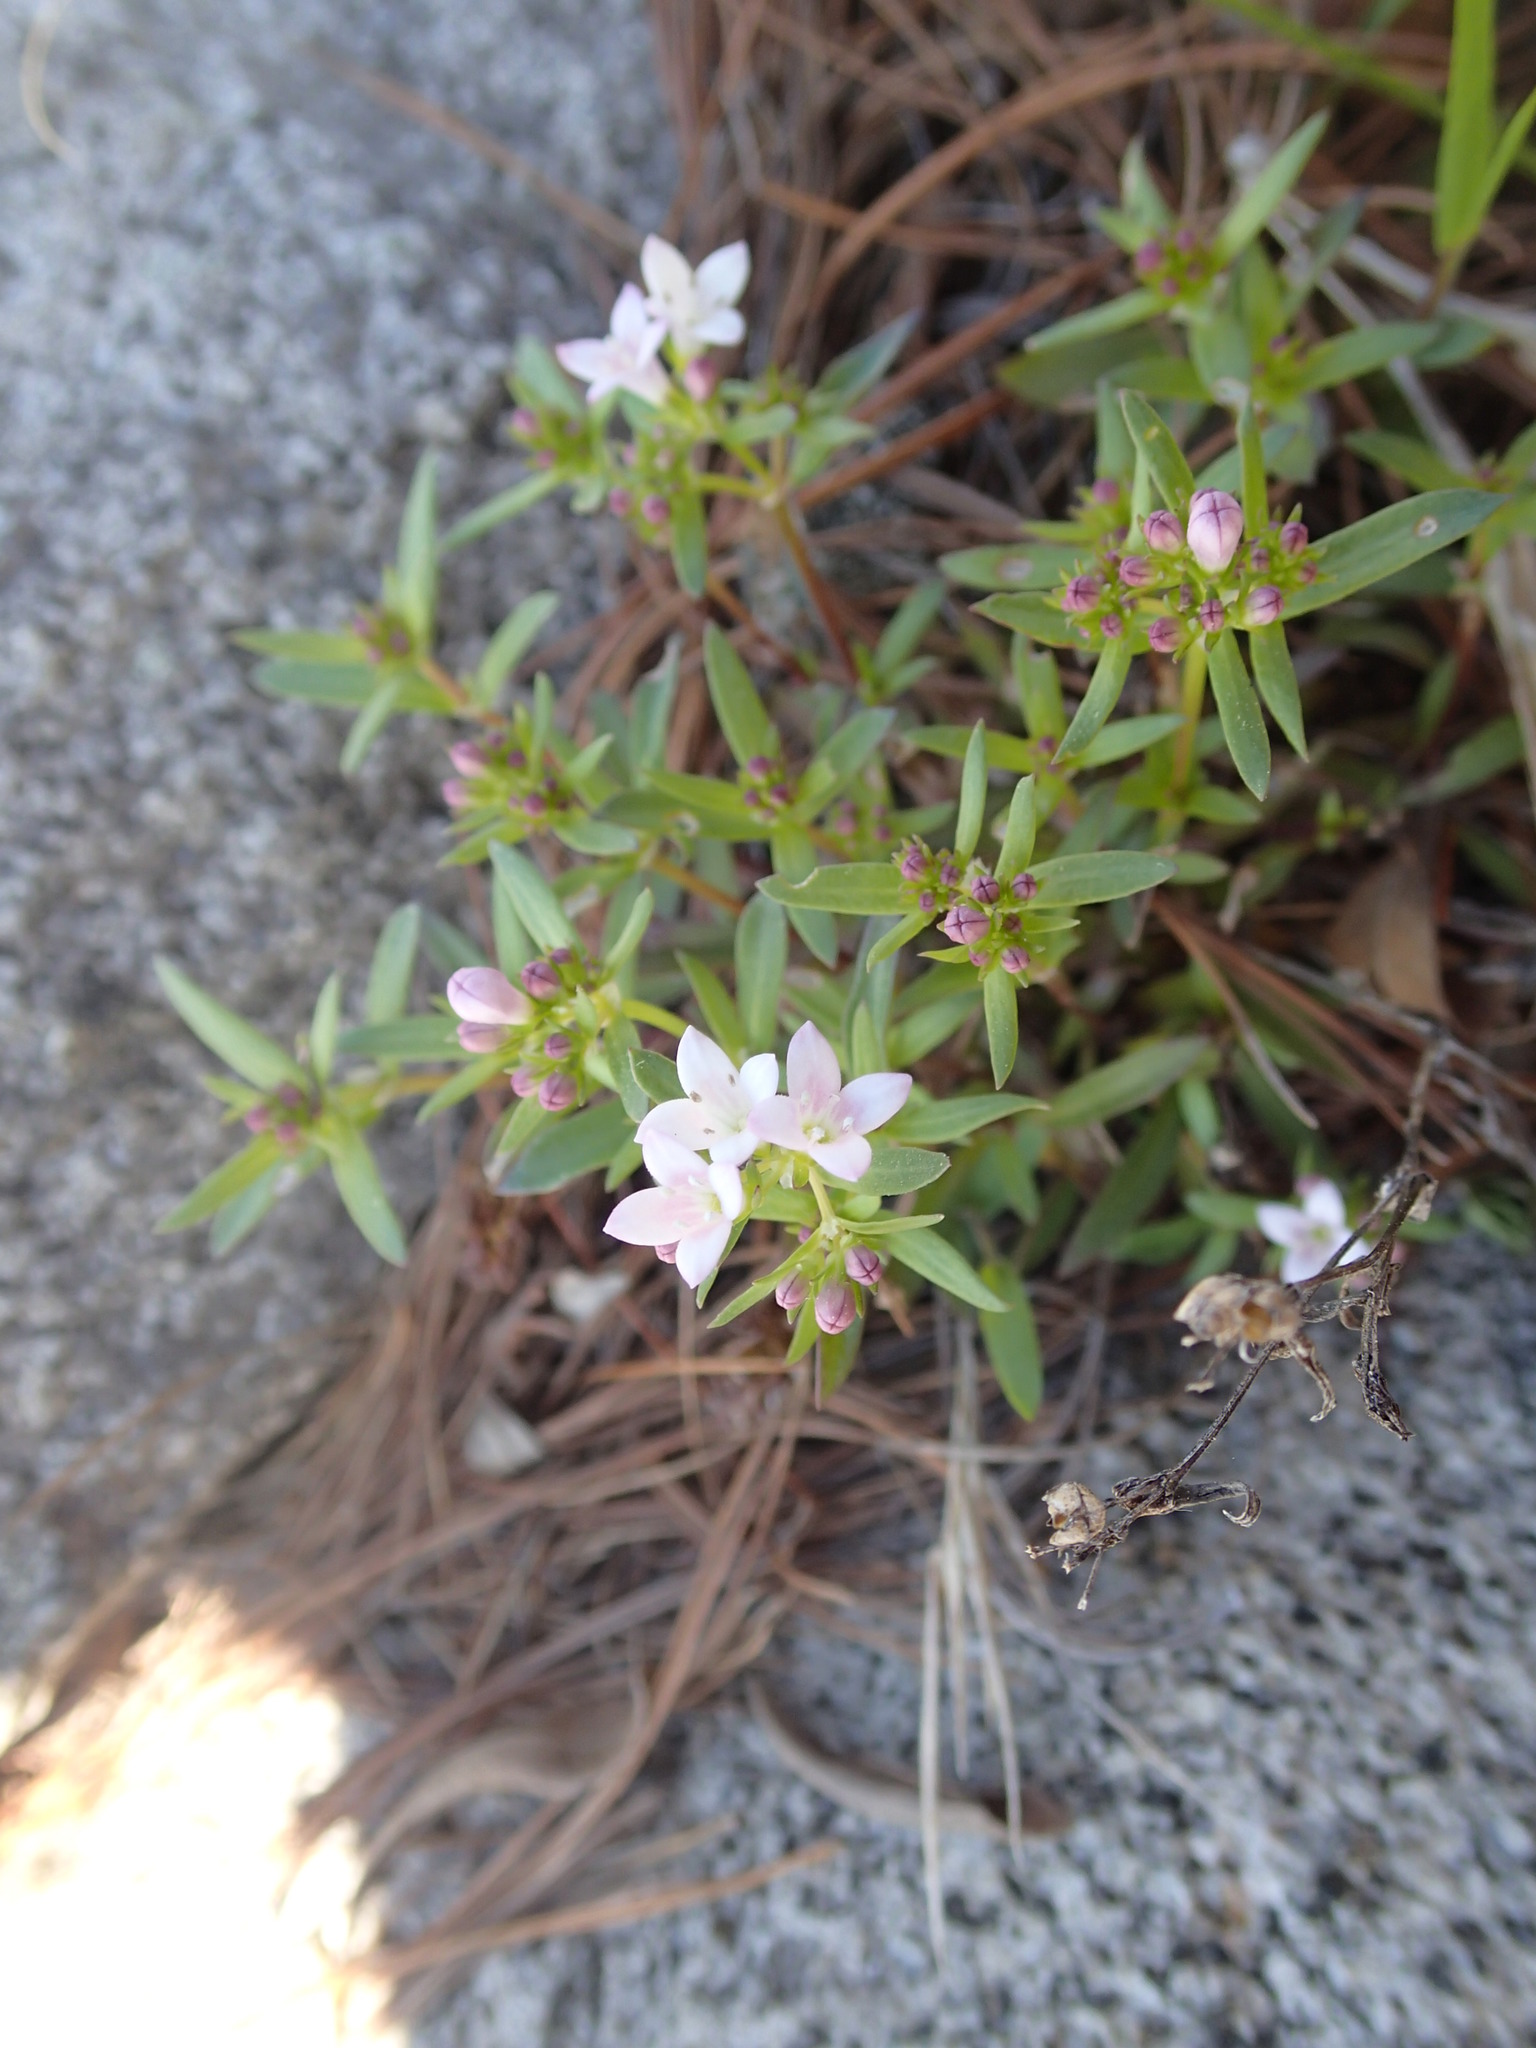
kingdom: Plantae
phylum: Tracheophyta
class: Magnoliopsida
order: Gentianales
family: Rubiaceae
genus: Houstonia
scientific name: Houstonia longifolia
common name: Long-leaved bluets
